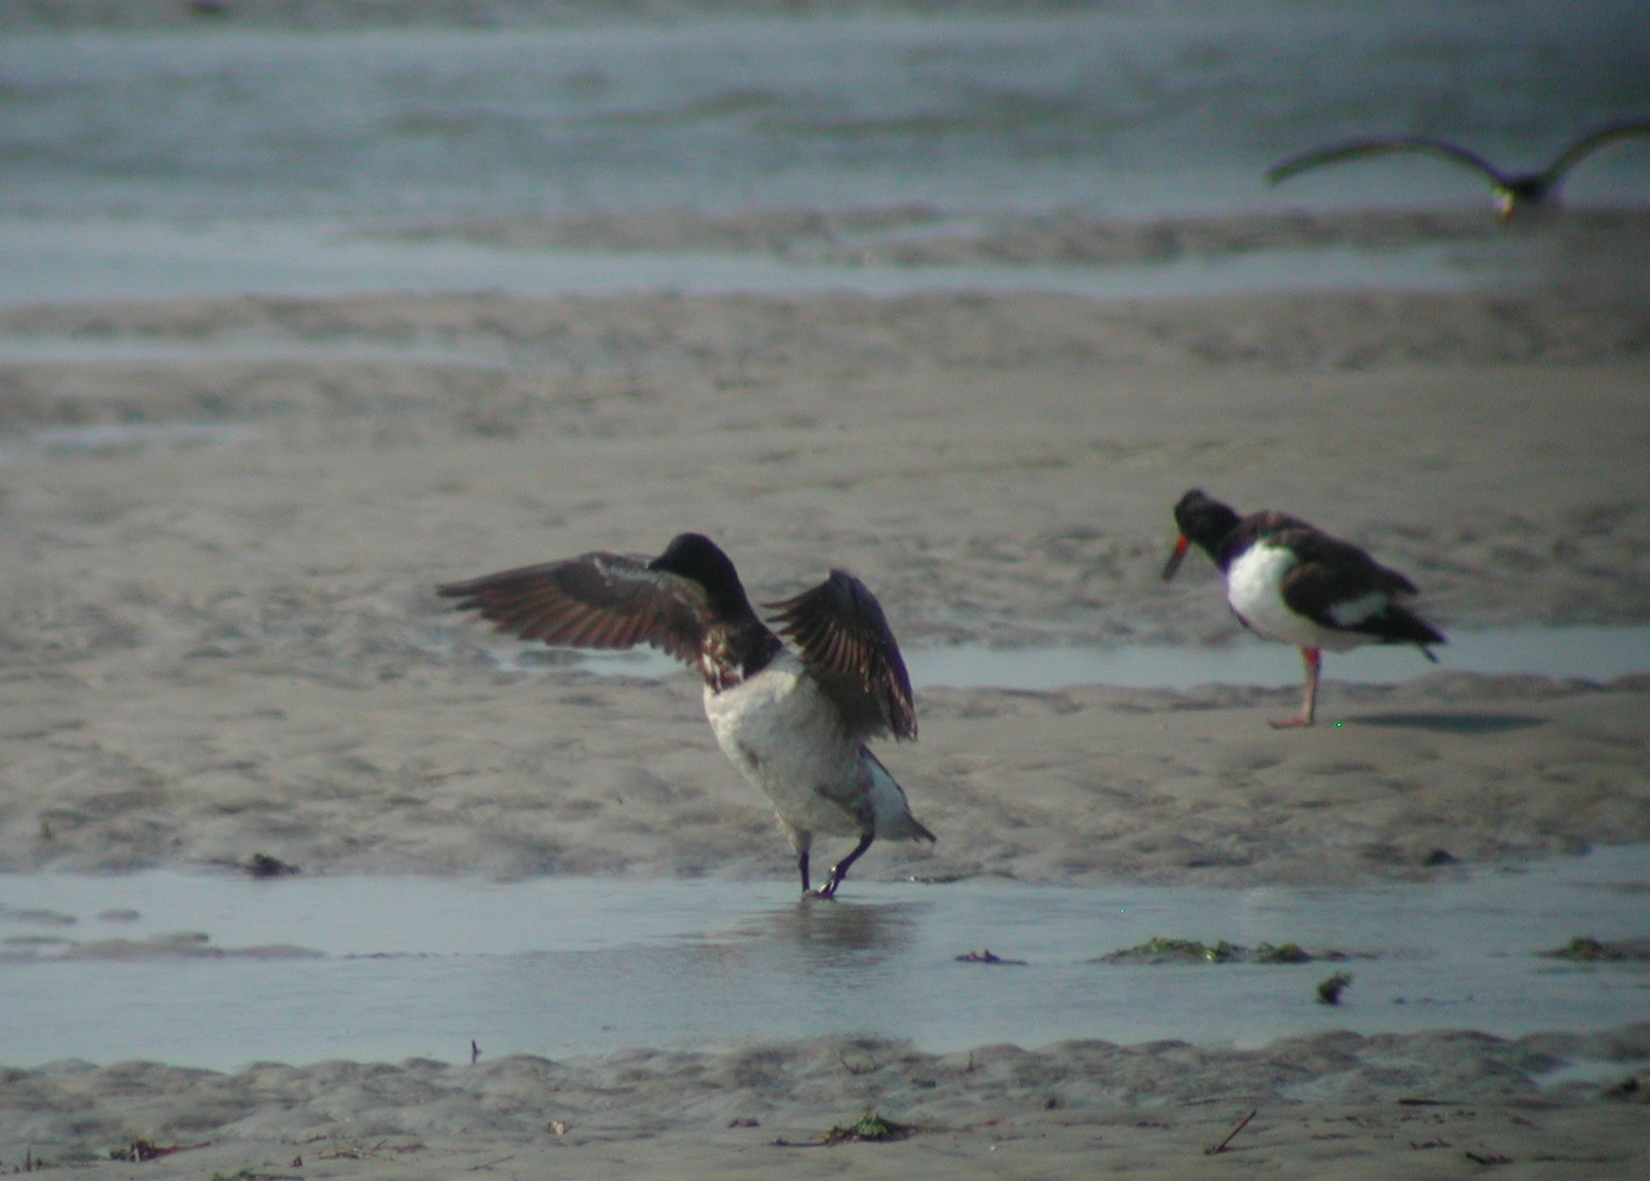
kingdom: Animalia
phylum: Chordata
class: Aves
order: Anseriformes
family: Anatidae
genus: Branta
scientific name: Branta bernicla
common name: Brant goose
